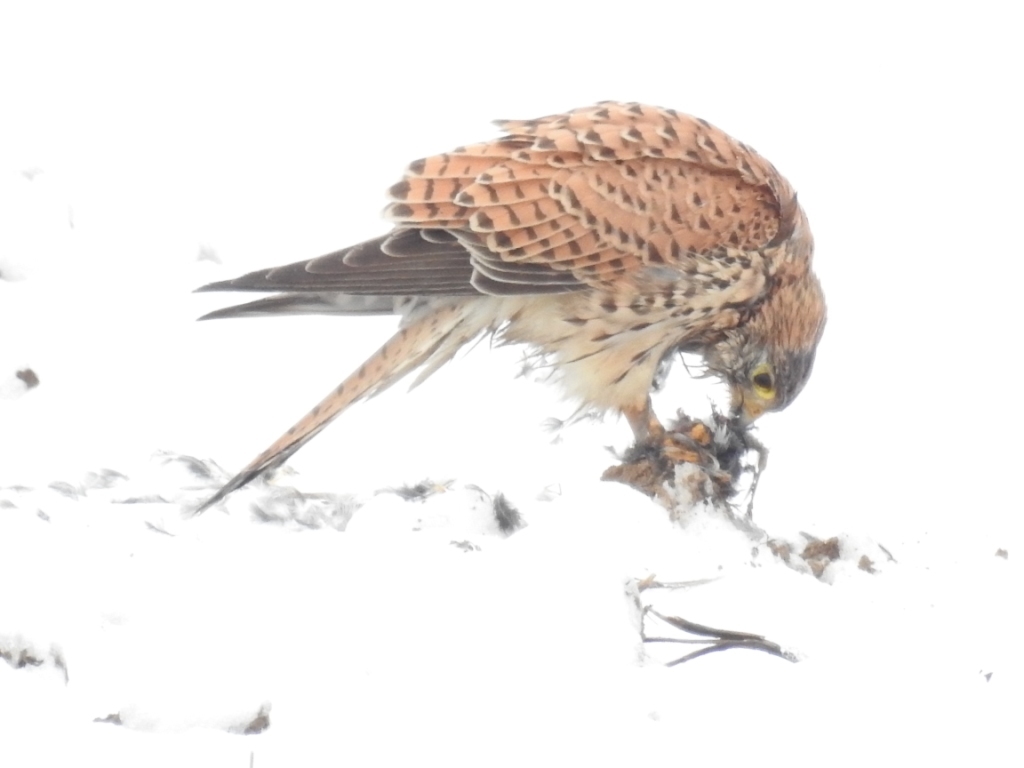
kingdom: Animalia
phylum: Chordata
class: Aves
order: Falconiformes
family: Falconidae
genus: Falco
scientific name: Falco tinnunculus
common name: Common kestrel
